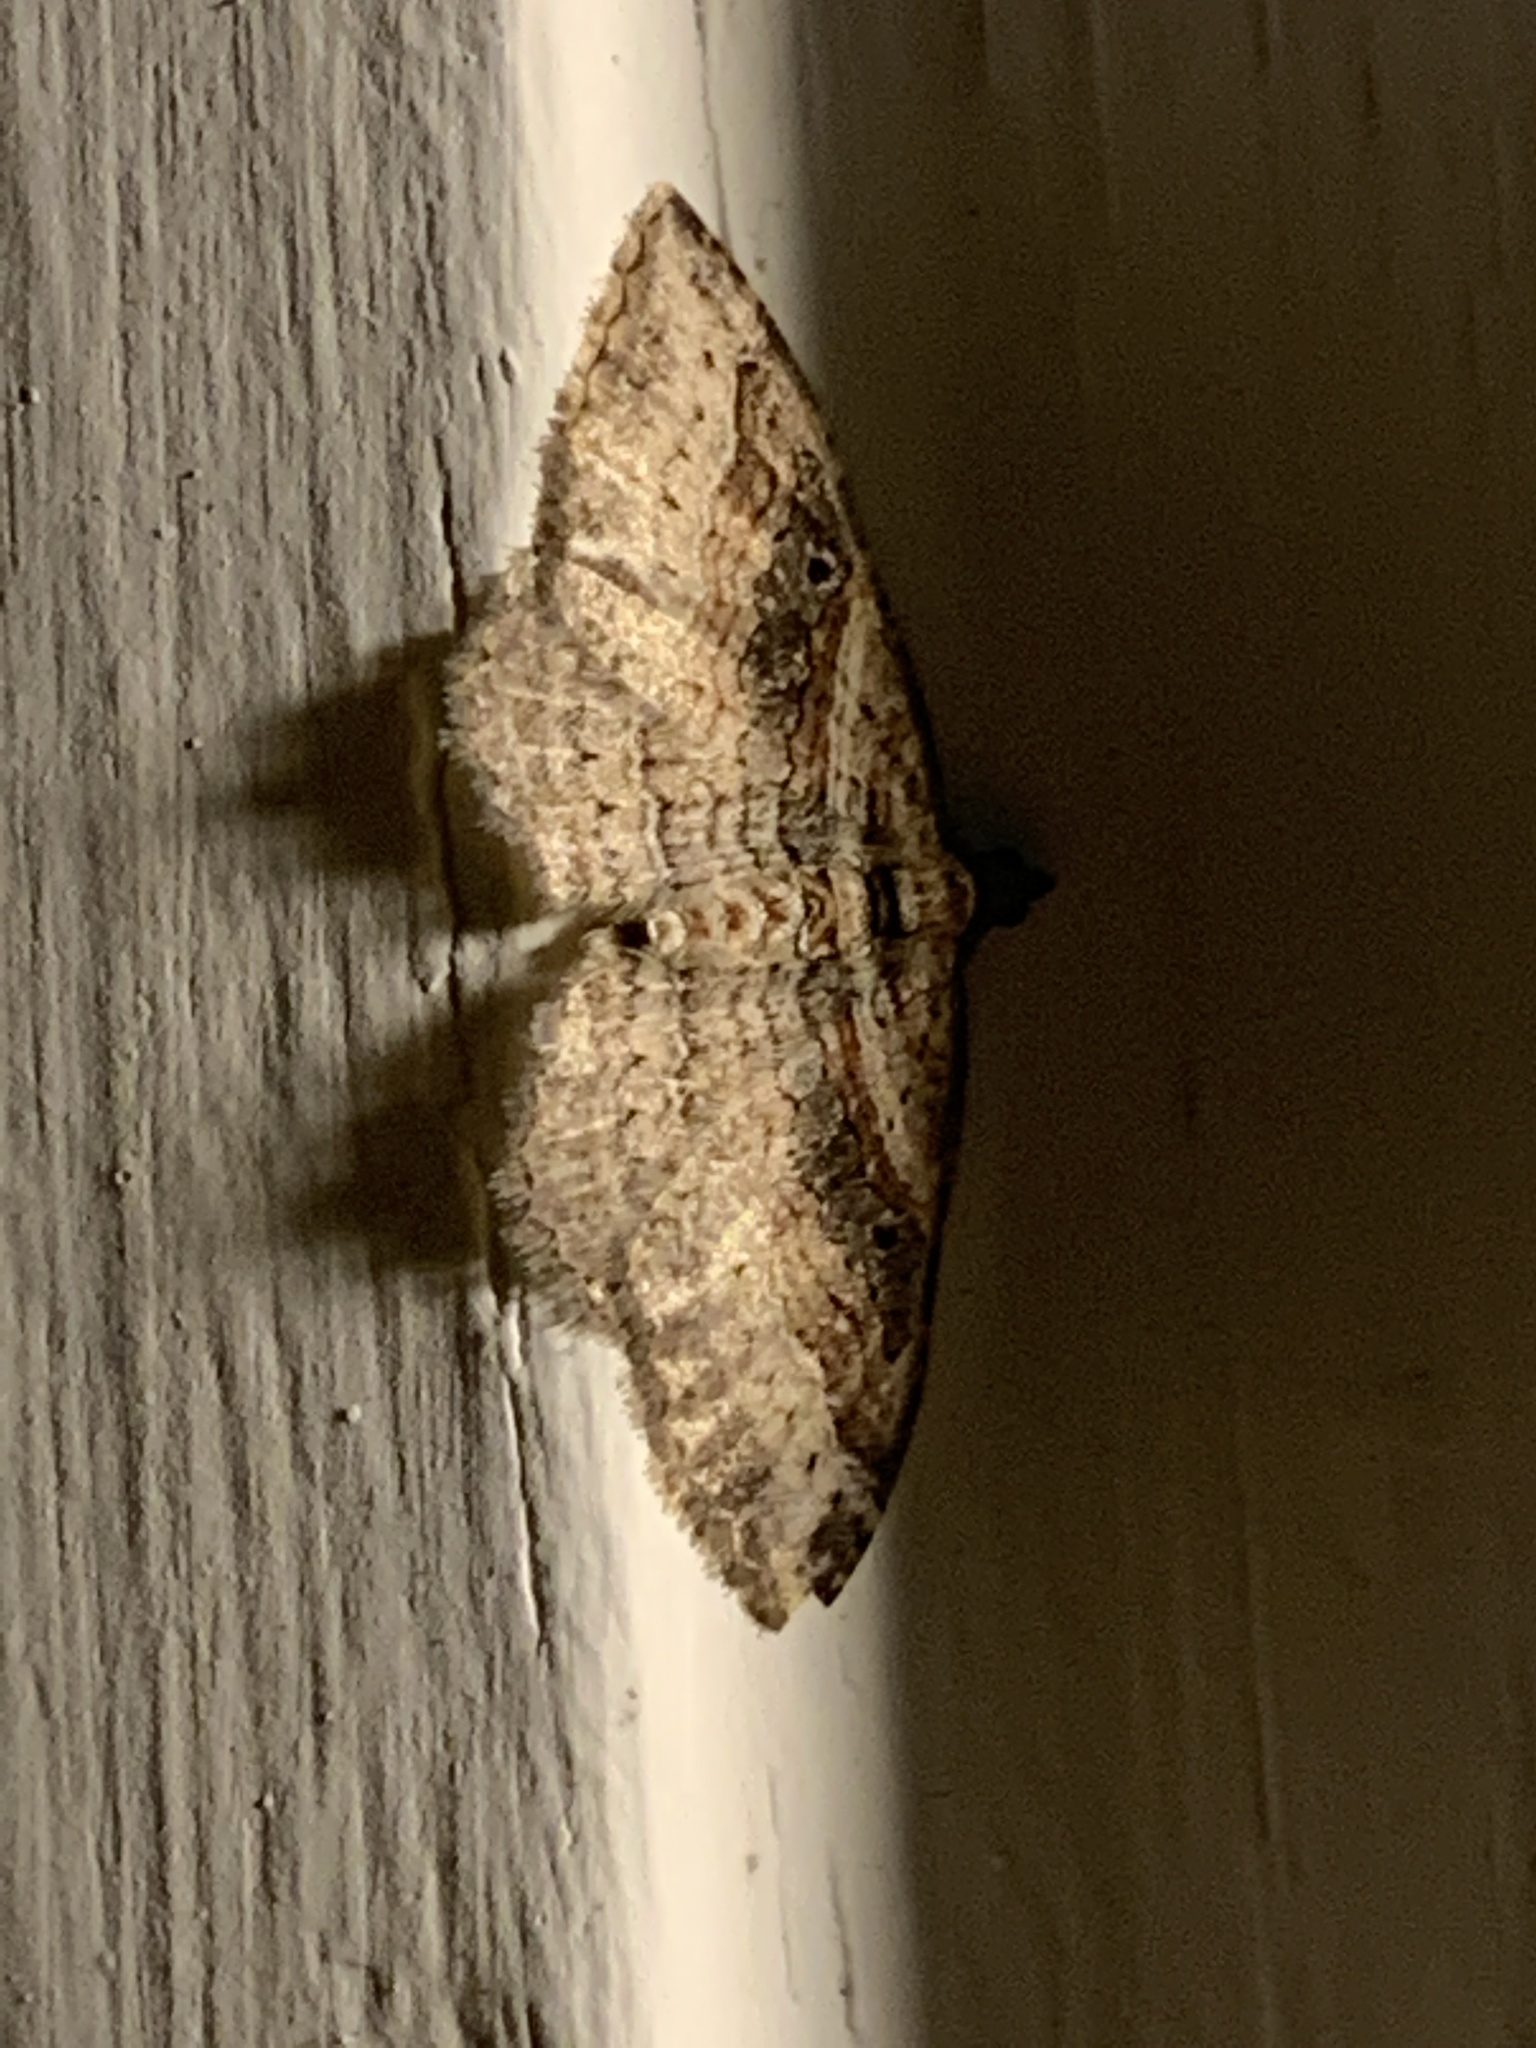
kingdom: Animalia
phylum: Arthropoda
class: Insecta
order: Lepidoptera
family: Geometridae
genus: Costaconvexa
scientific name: Costaconvexa centrostrigaria
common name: Bent-line carpet
